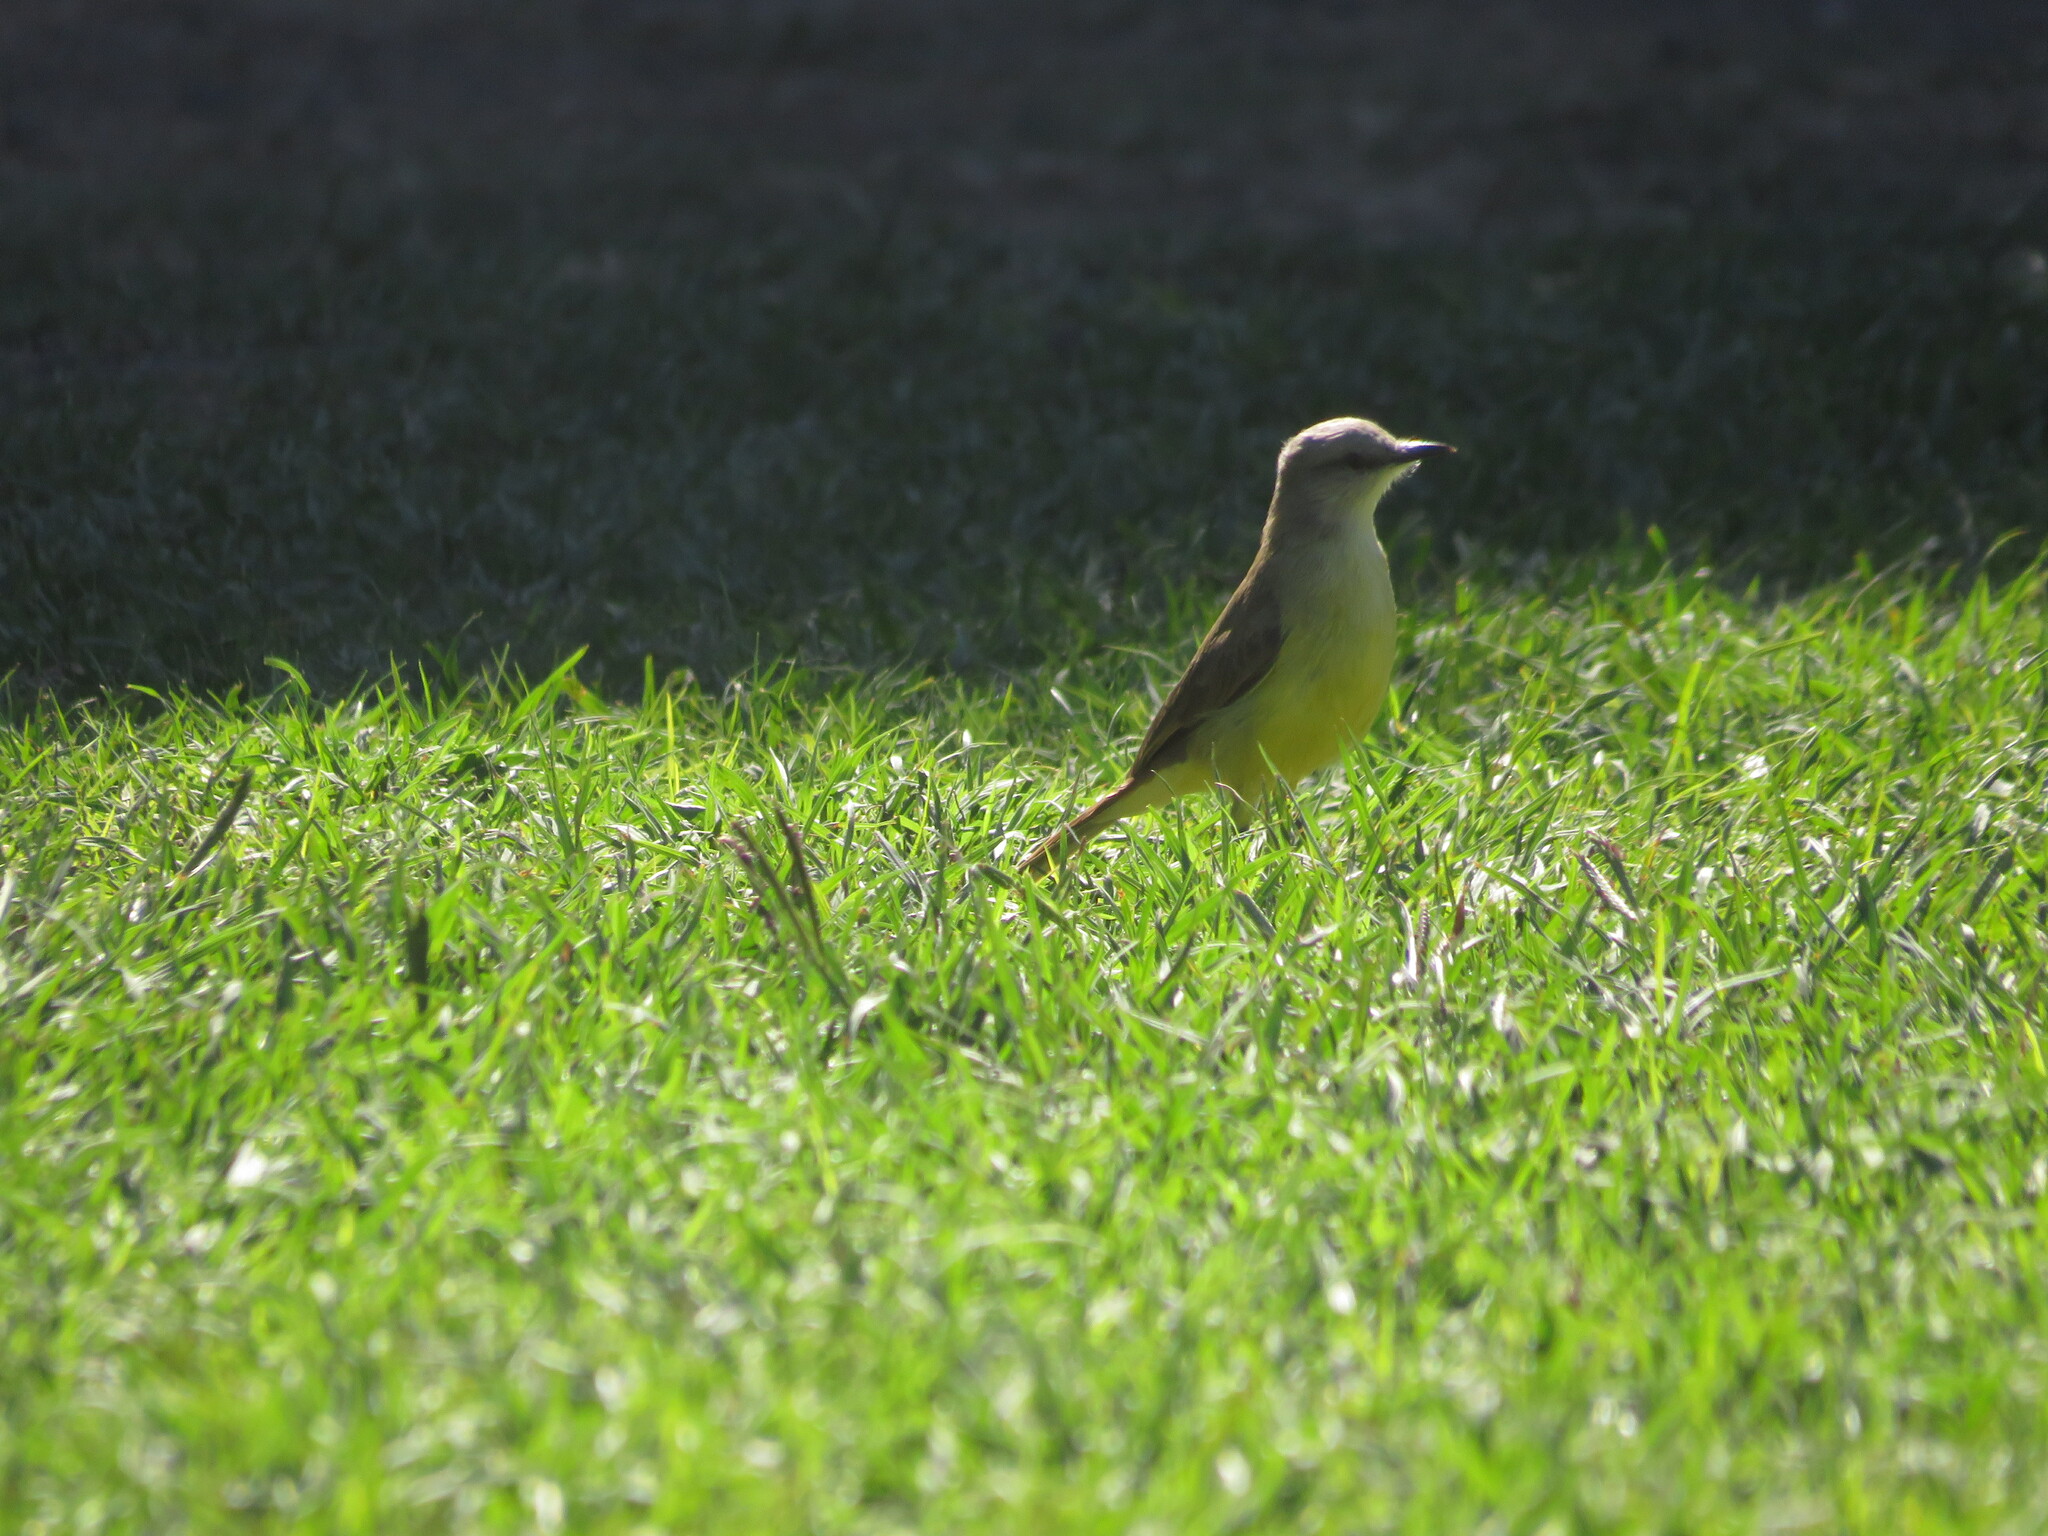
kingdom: Animalia
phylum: Chordata
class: Aves
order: Passeriformes
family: Tyrannidae
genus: Machetornis
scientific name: Machetornis rixosa
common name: Cattle tyrant
